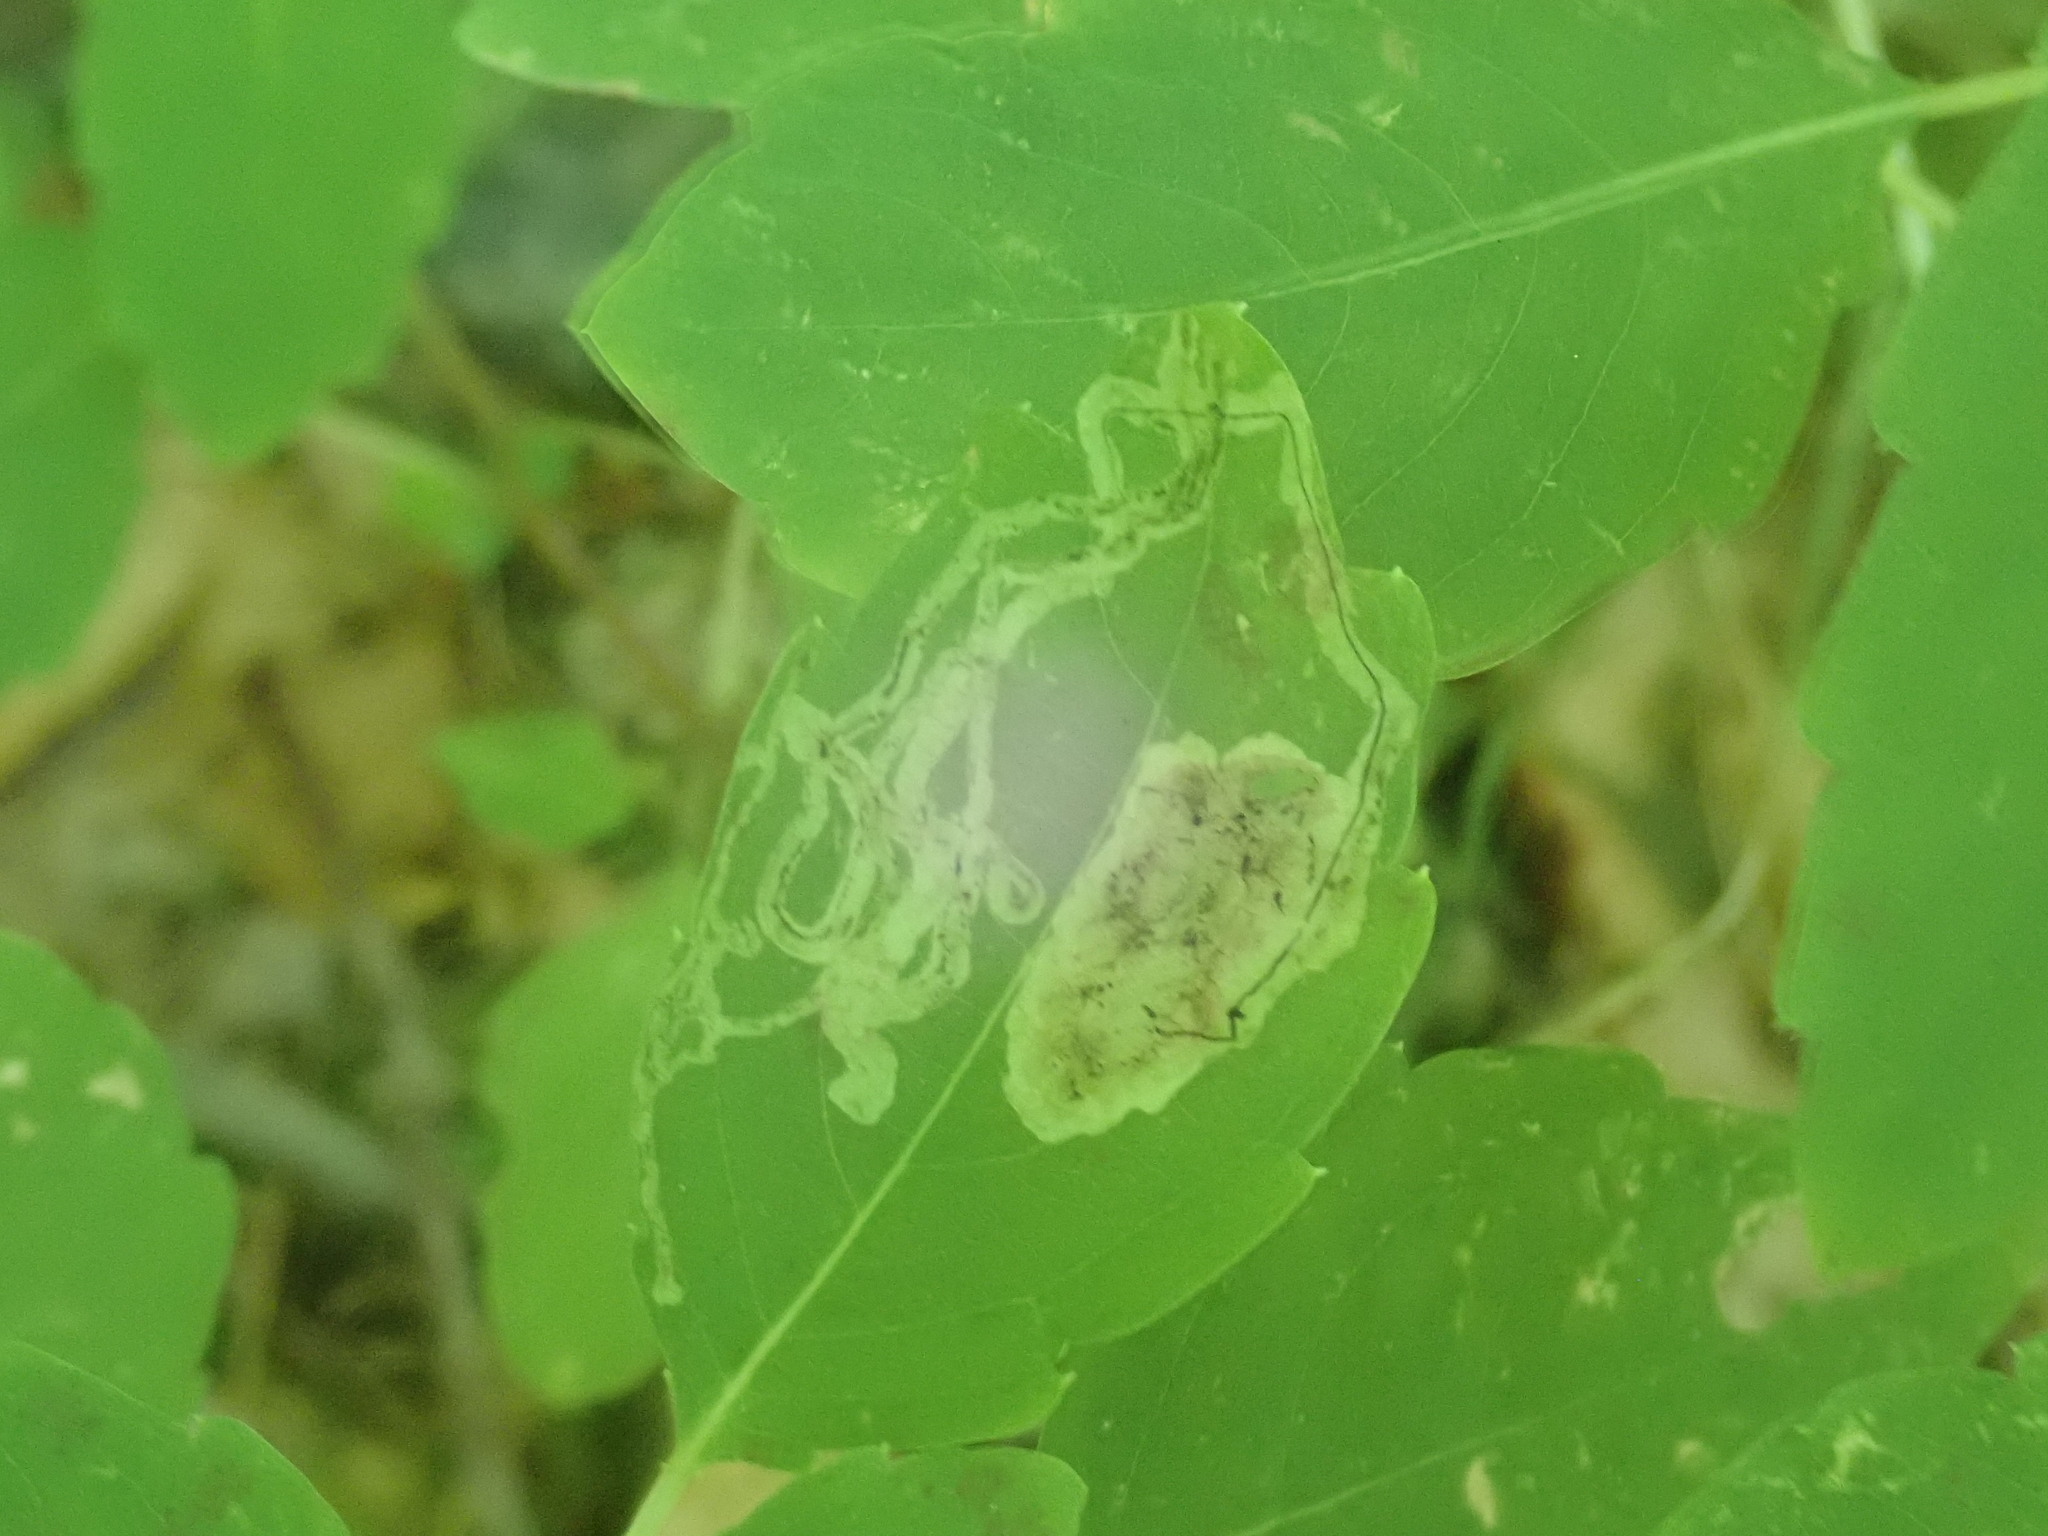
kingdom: Animalia
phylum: Arthropoda
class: Insecta
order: Diptera
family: Agromyzidae
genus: Phytoliriomyza
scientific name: Phytoliriomyza melampyga
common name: Jewelweed leaf-miner fly
